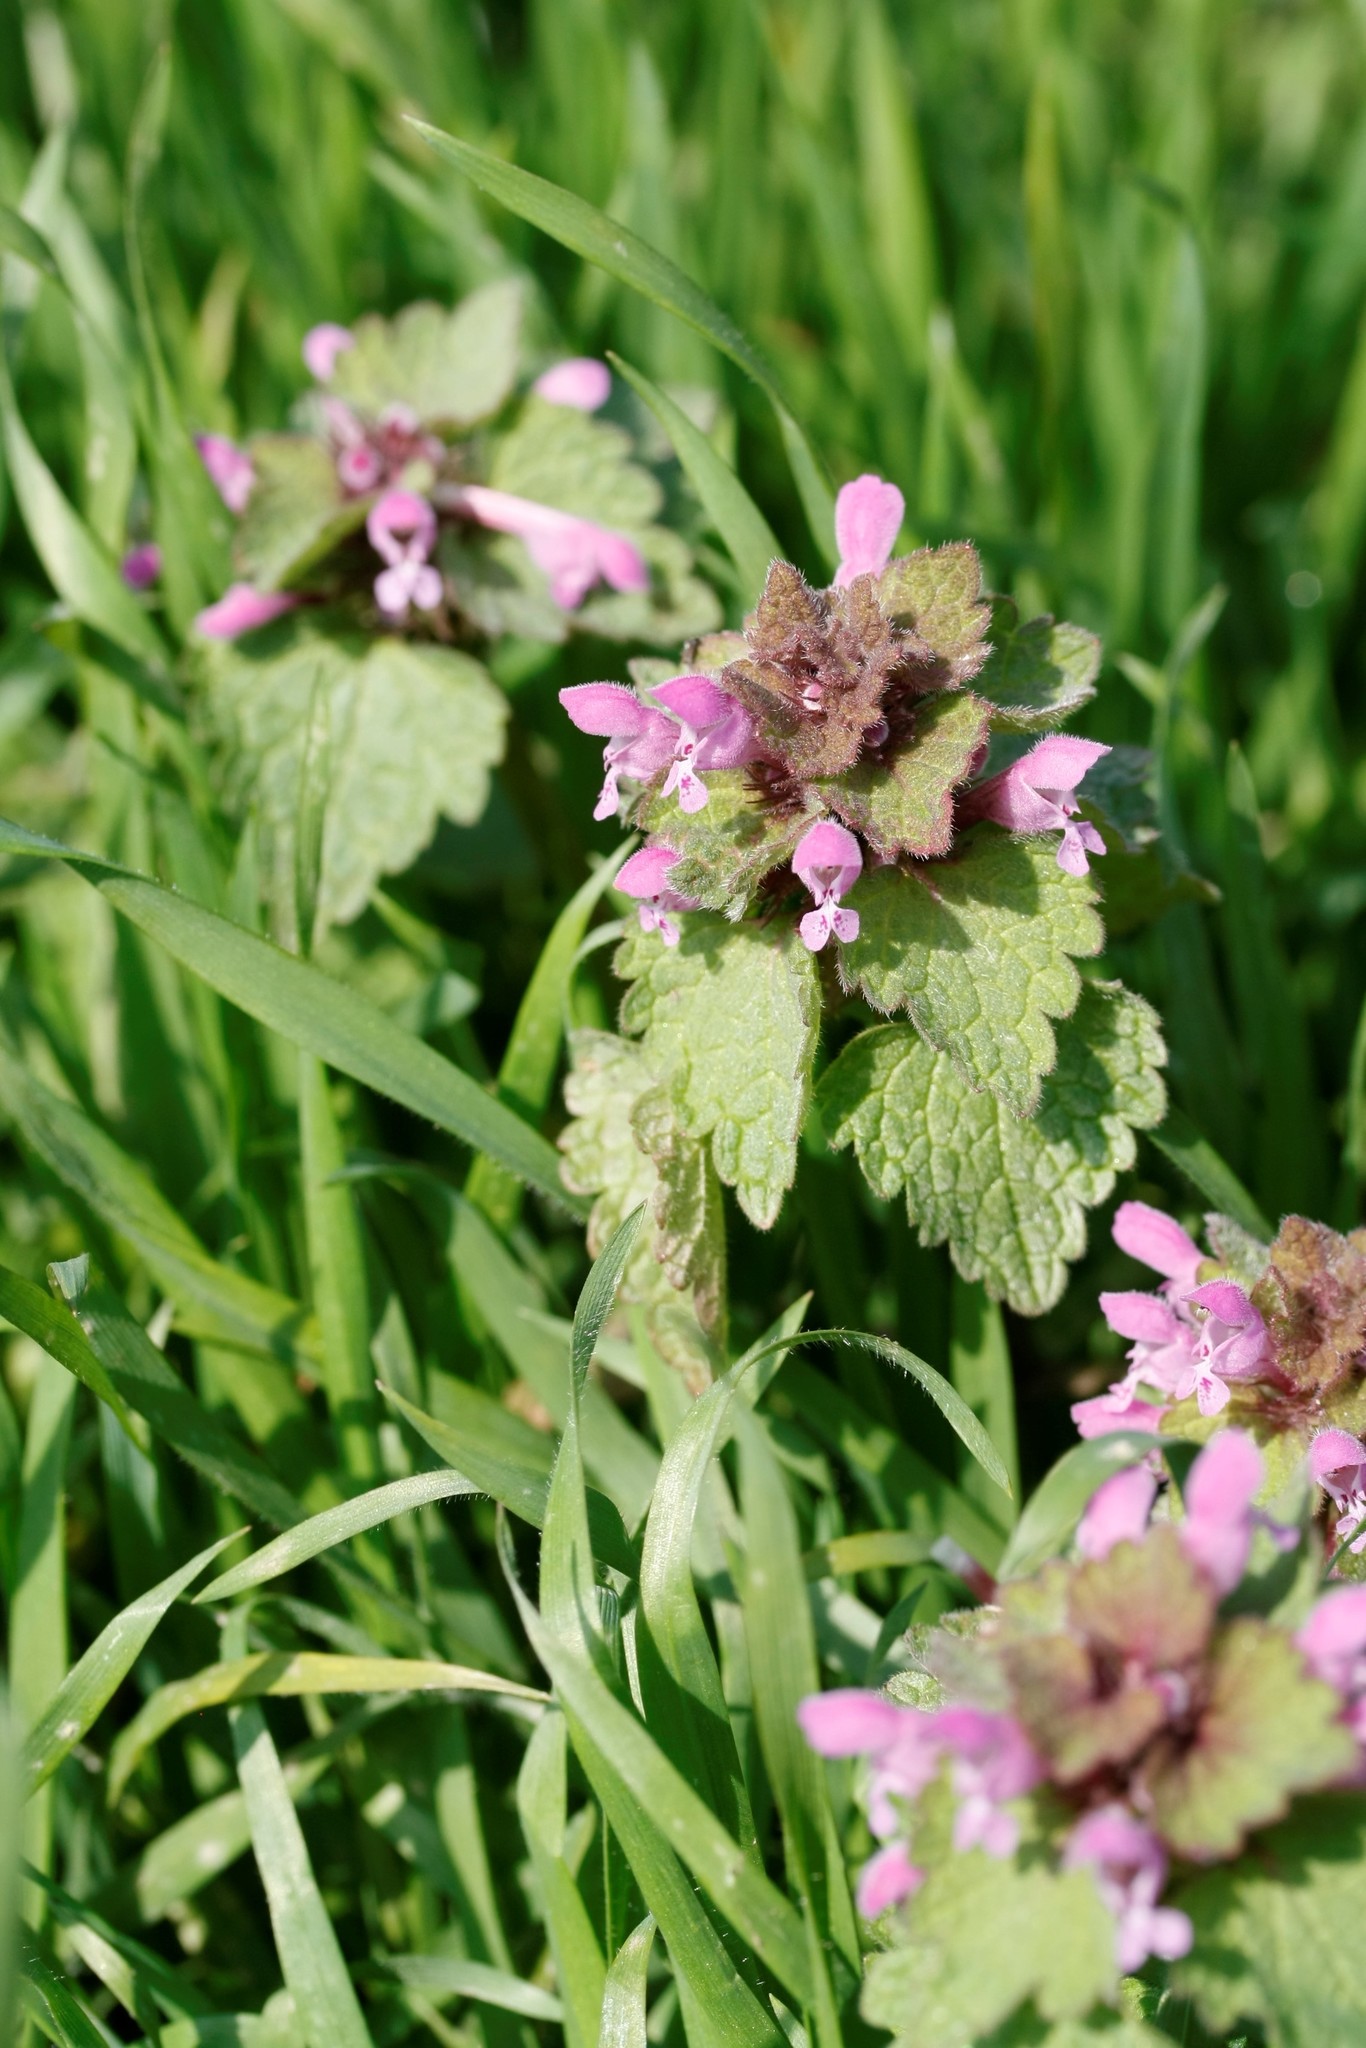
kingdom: Plantae
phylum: Tracheophyta
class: Magnoliopsida
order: Lamiales
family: Lamiaceae
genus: Lamium
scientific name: Lamium purpureum
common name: Red dead-nettle
